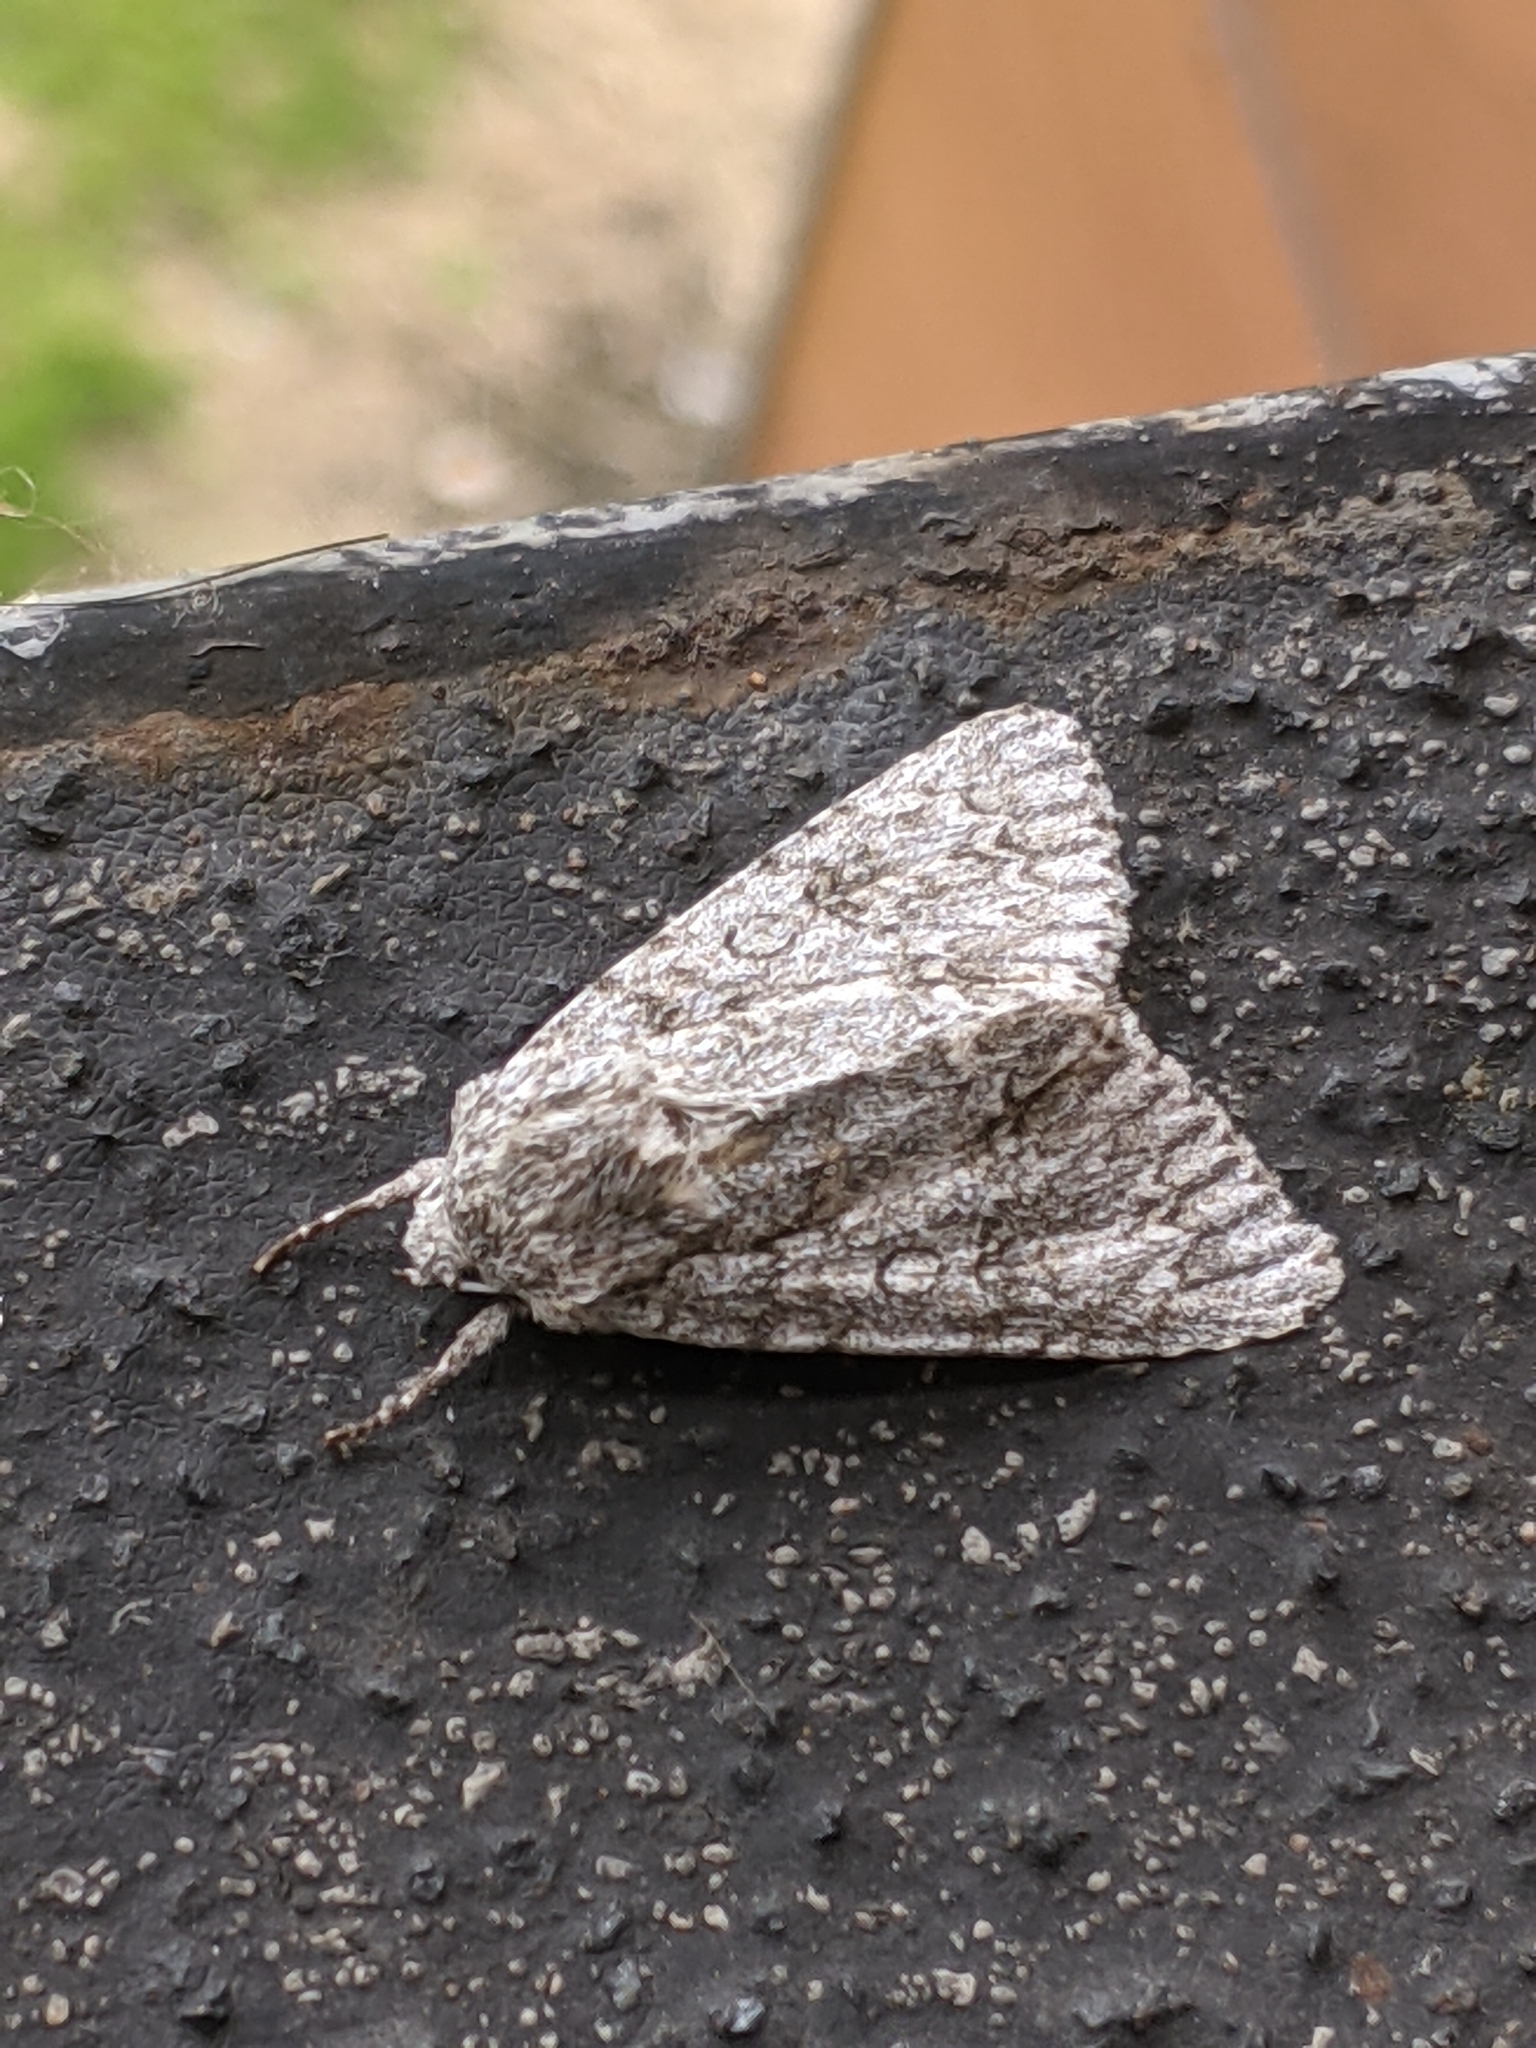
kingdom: Animalia
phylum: Arthropoda
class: Insecta
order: Lepidoptera
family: Noctuidae
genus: Acronicta
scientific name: Acronicta aceris
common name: Sycamore
